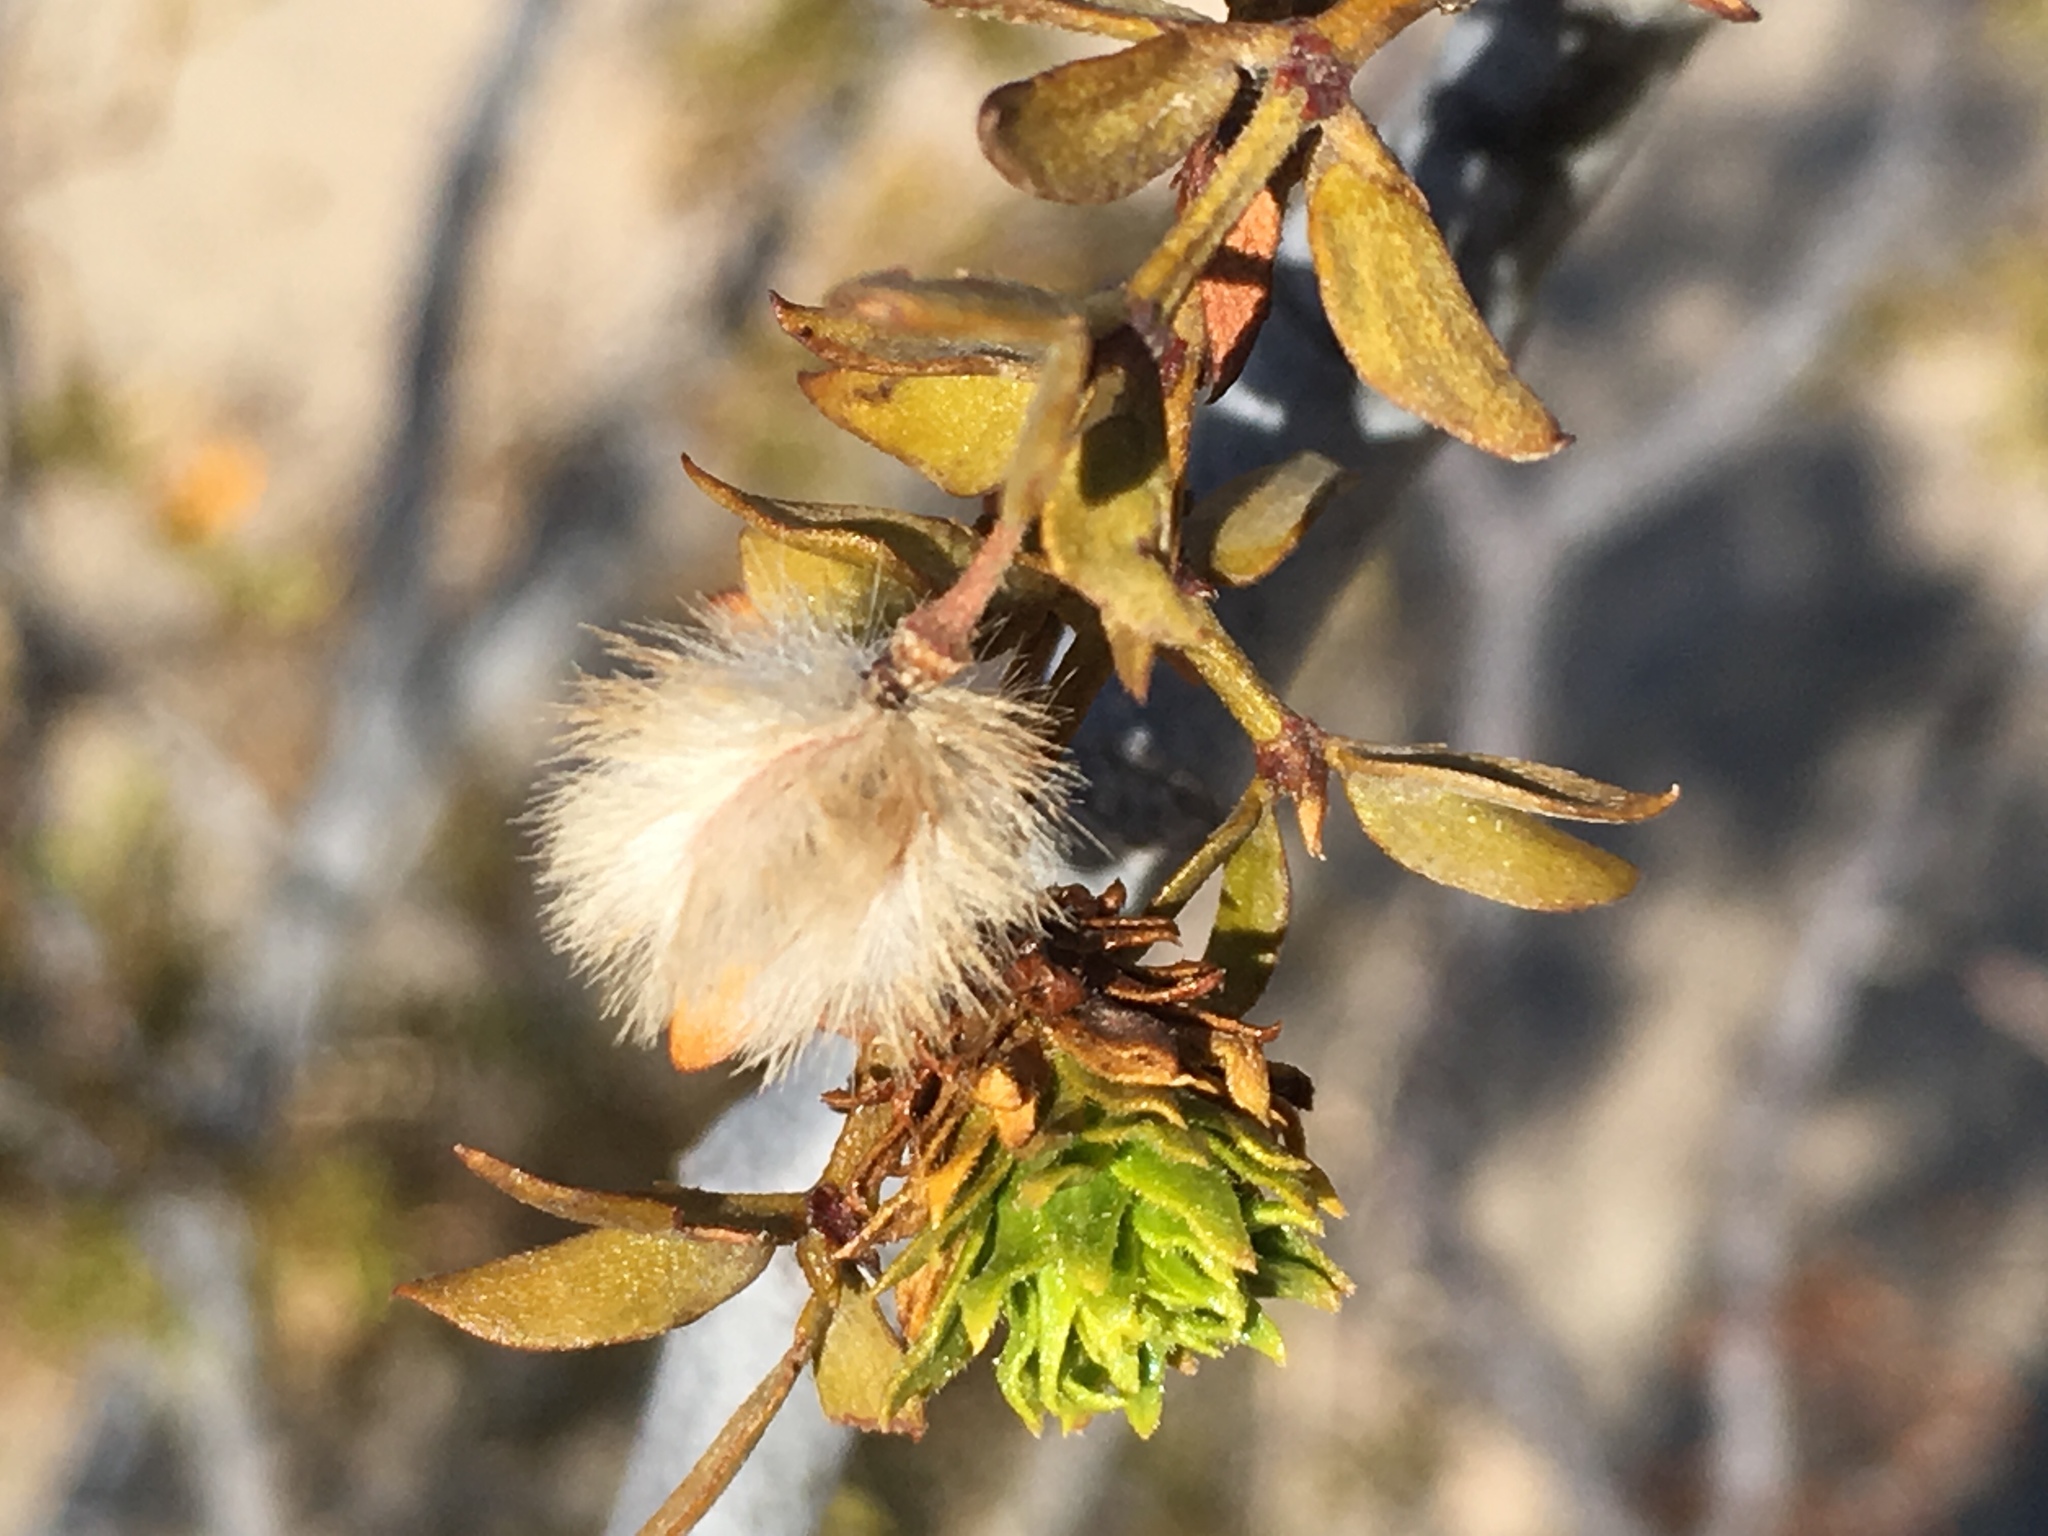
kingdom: Plantae
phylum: Tracheophyta
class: Magnoliopsida
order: Zygophyllales
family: Zygophyllaceae
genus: Larrea
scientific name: Larrea tridentata
